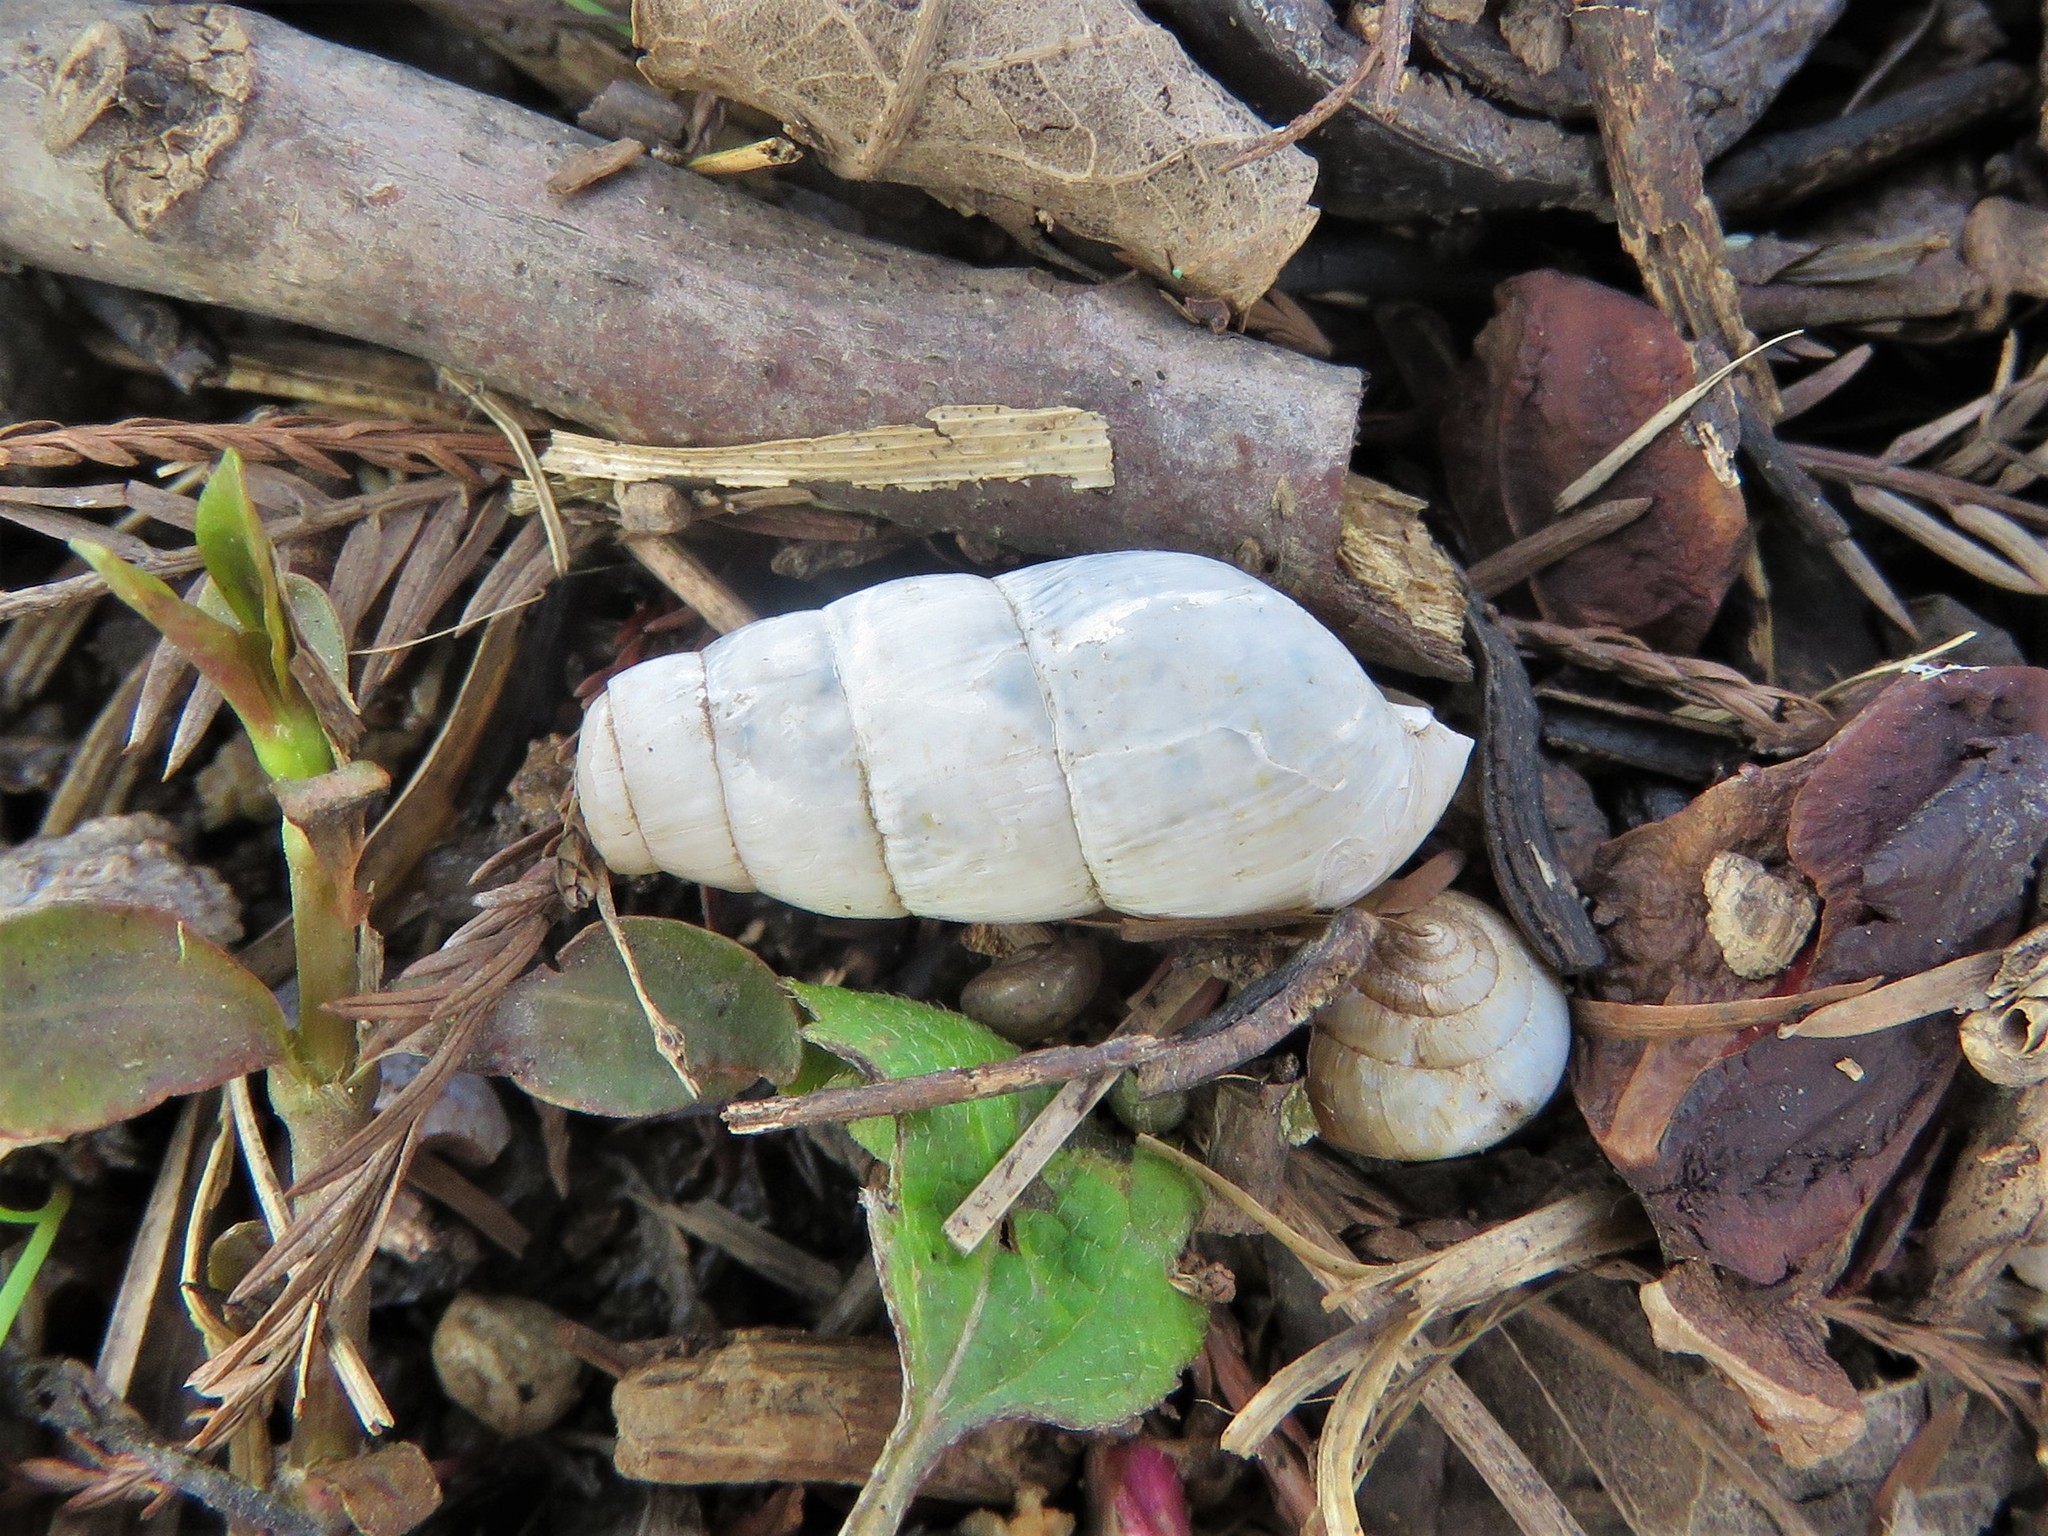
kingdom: Animalia
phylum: Mollusca
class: Gastropoda
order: Stylommatophora
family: Achatinidae
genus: Rumina
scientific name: Rumina decollata
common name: Decollate snail
